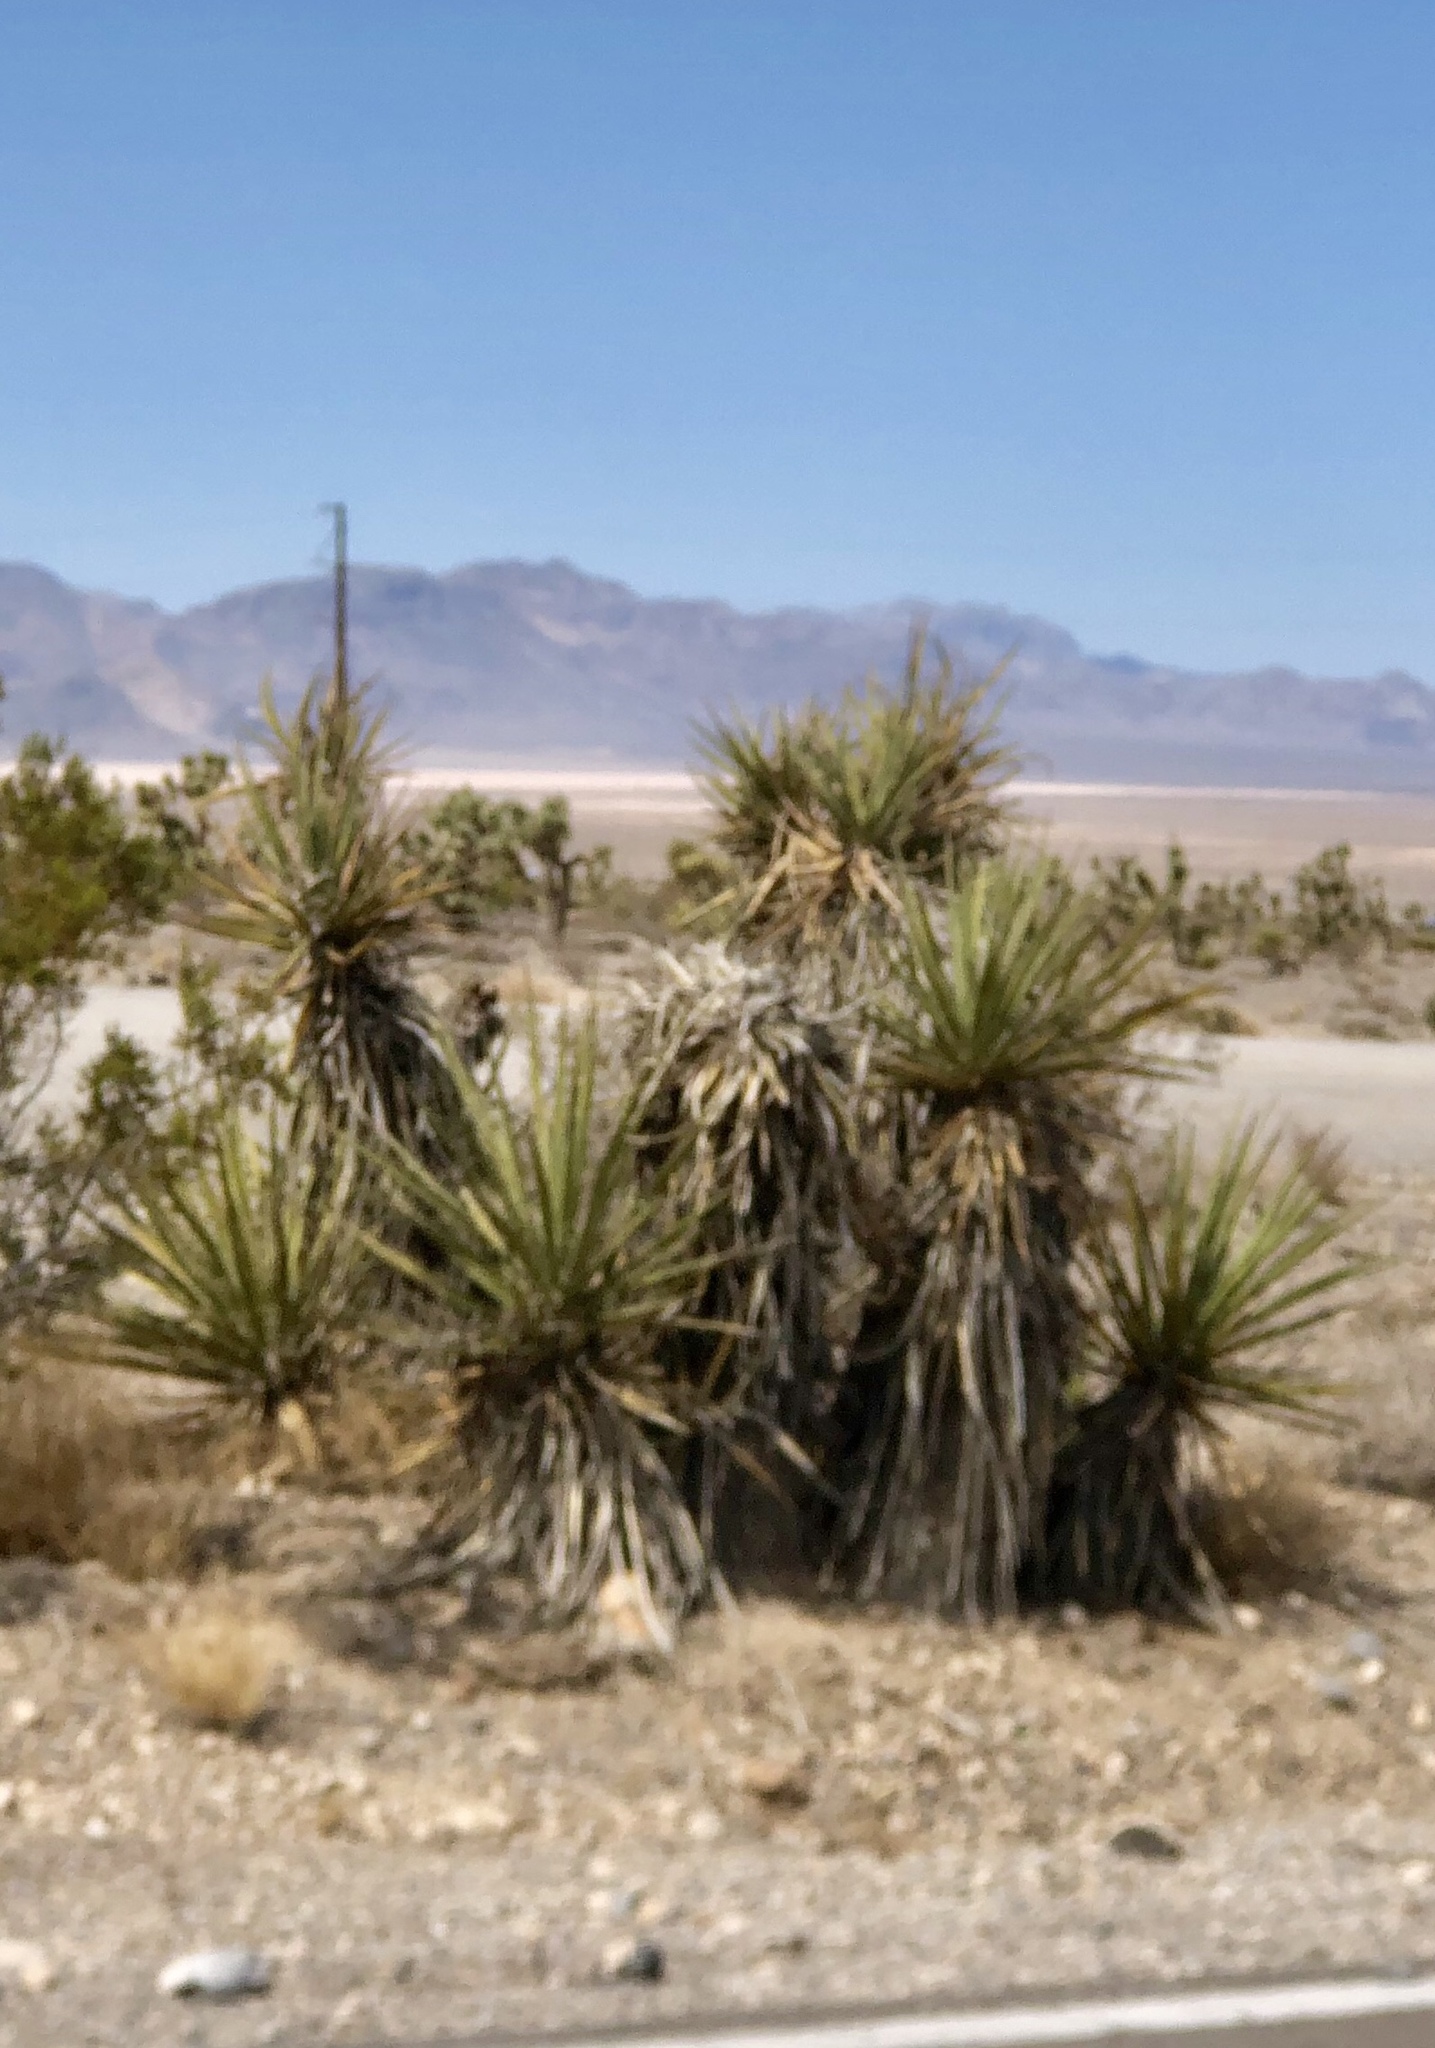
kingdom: Plantae
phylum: Tracheophyta
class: Liliopsida
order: Asparagales
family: Asparagaceae
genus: Yucca
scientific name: Yucca schidigera
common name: Mojave yucca
